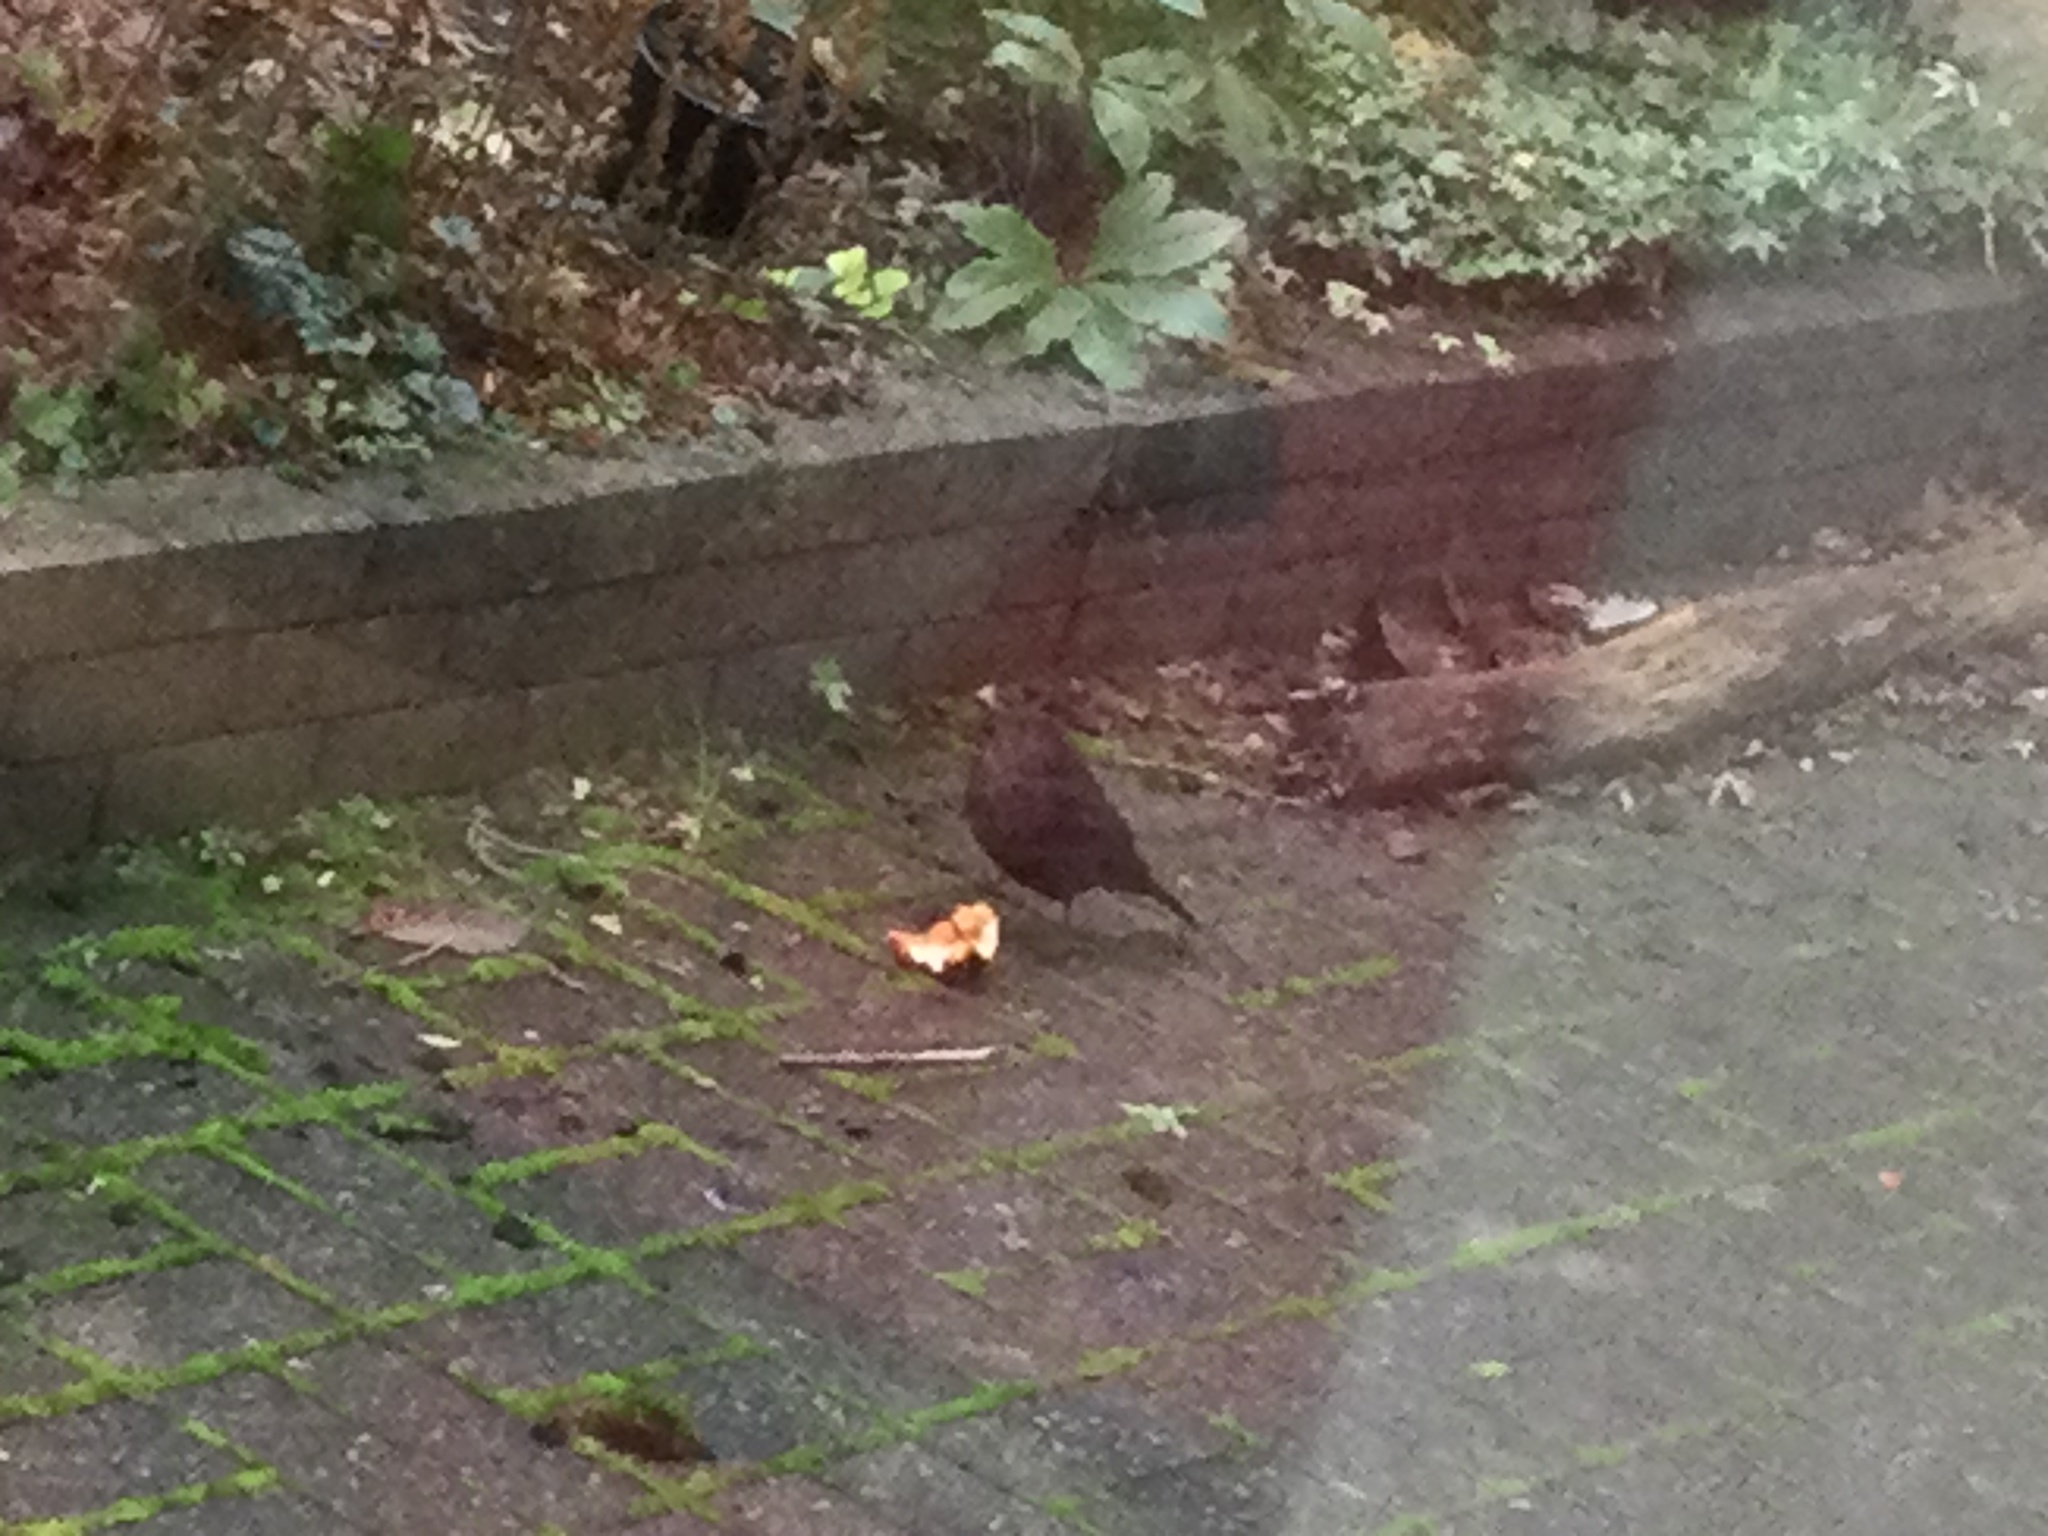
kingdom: Animalia
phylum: Chordata
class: Aves
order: Passeriformes
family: Turdidae
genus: Turdus
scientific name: Turdus merula
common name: Common blackbird
